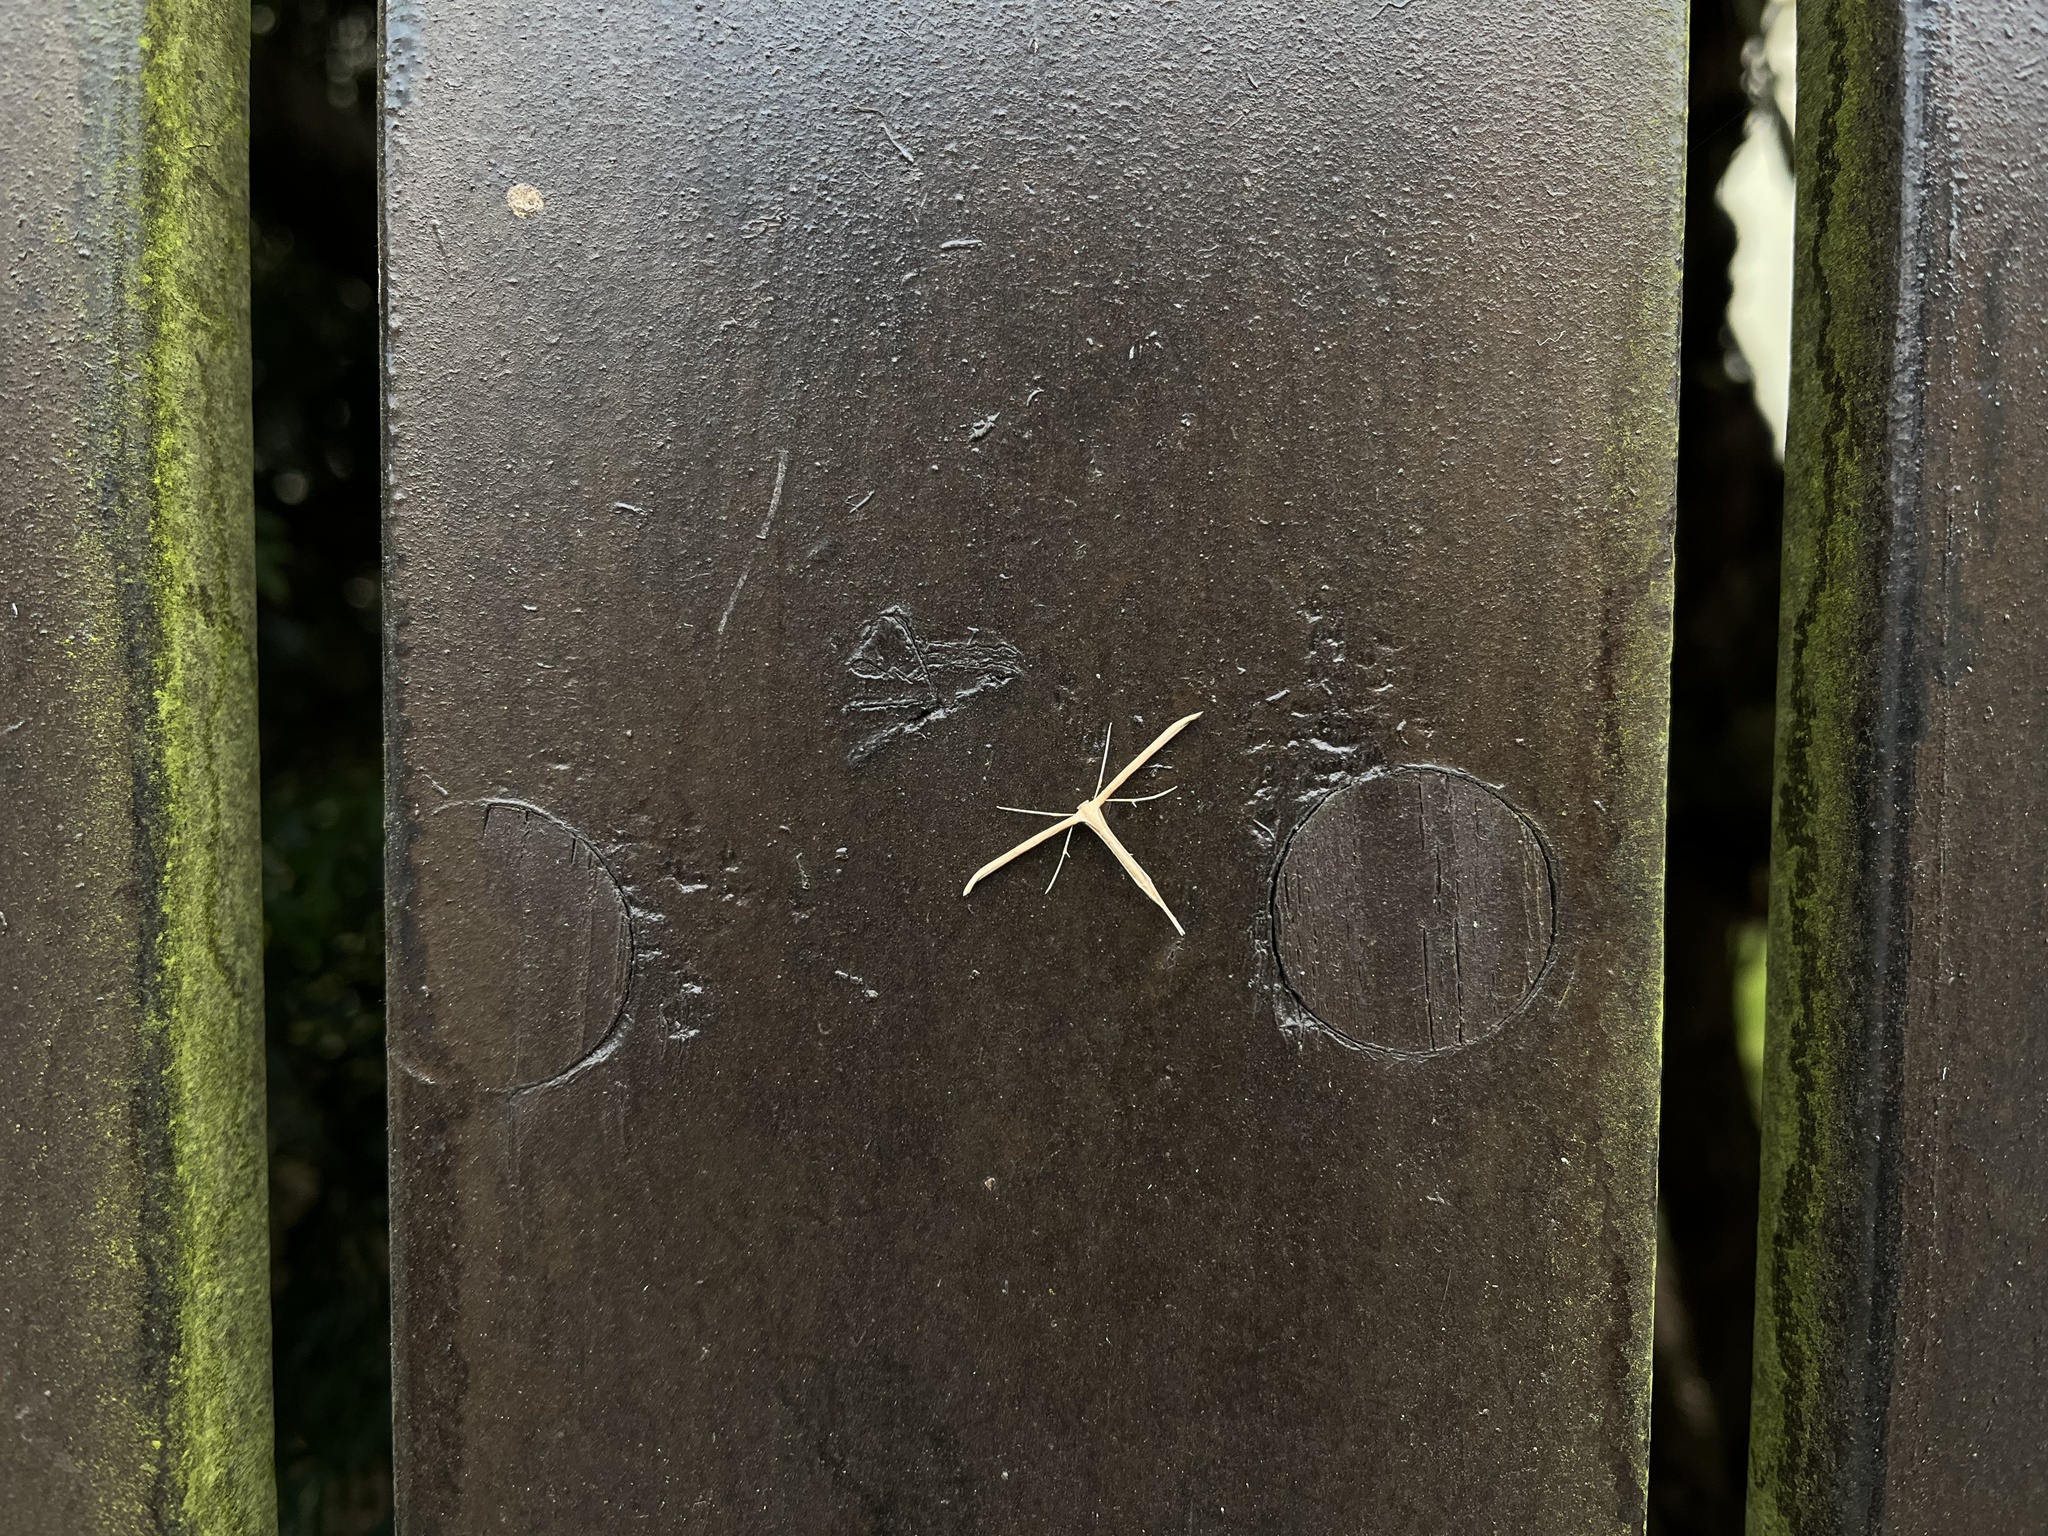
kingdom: Animalia
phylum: Arthropoda
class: Insecta
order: Lepidoptera
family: Pterophoridae
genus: Emmelina
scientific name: Emmelina monodactyla
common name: Common plume
